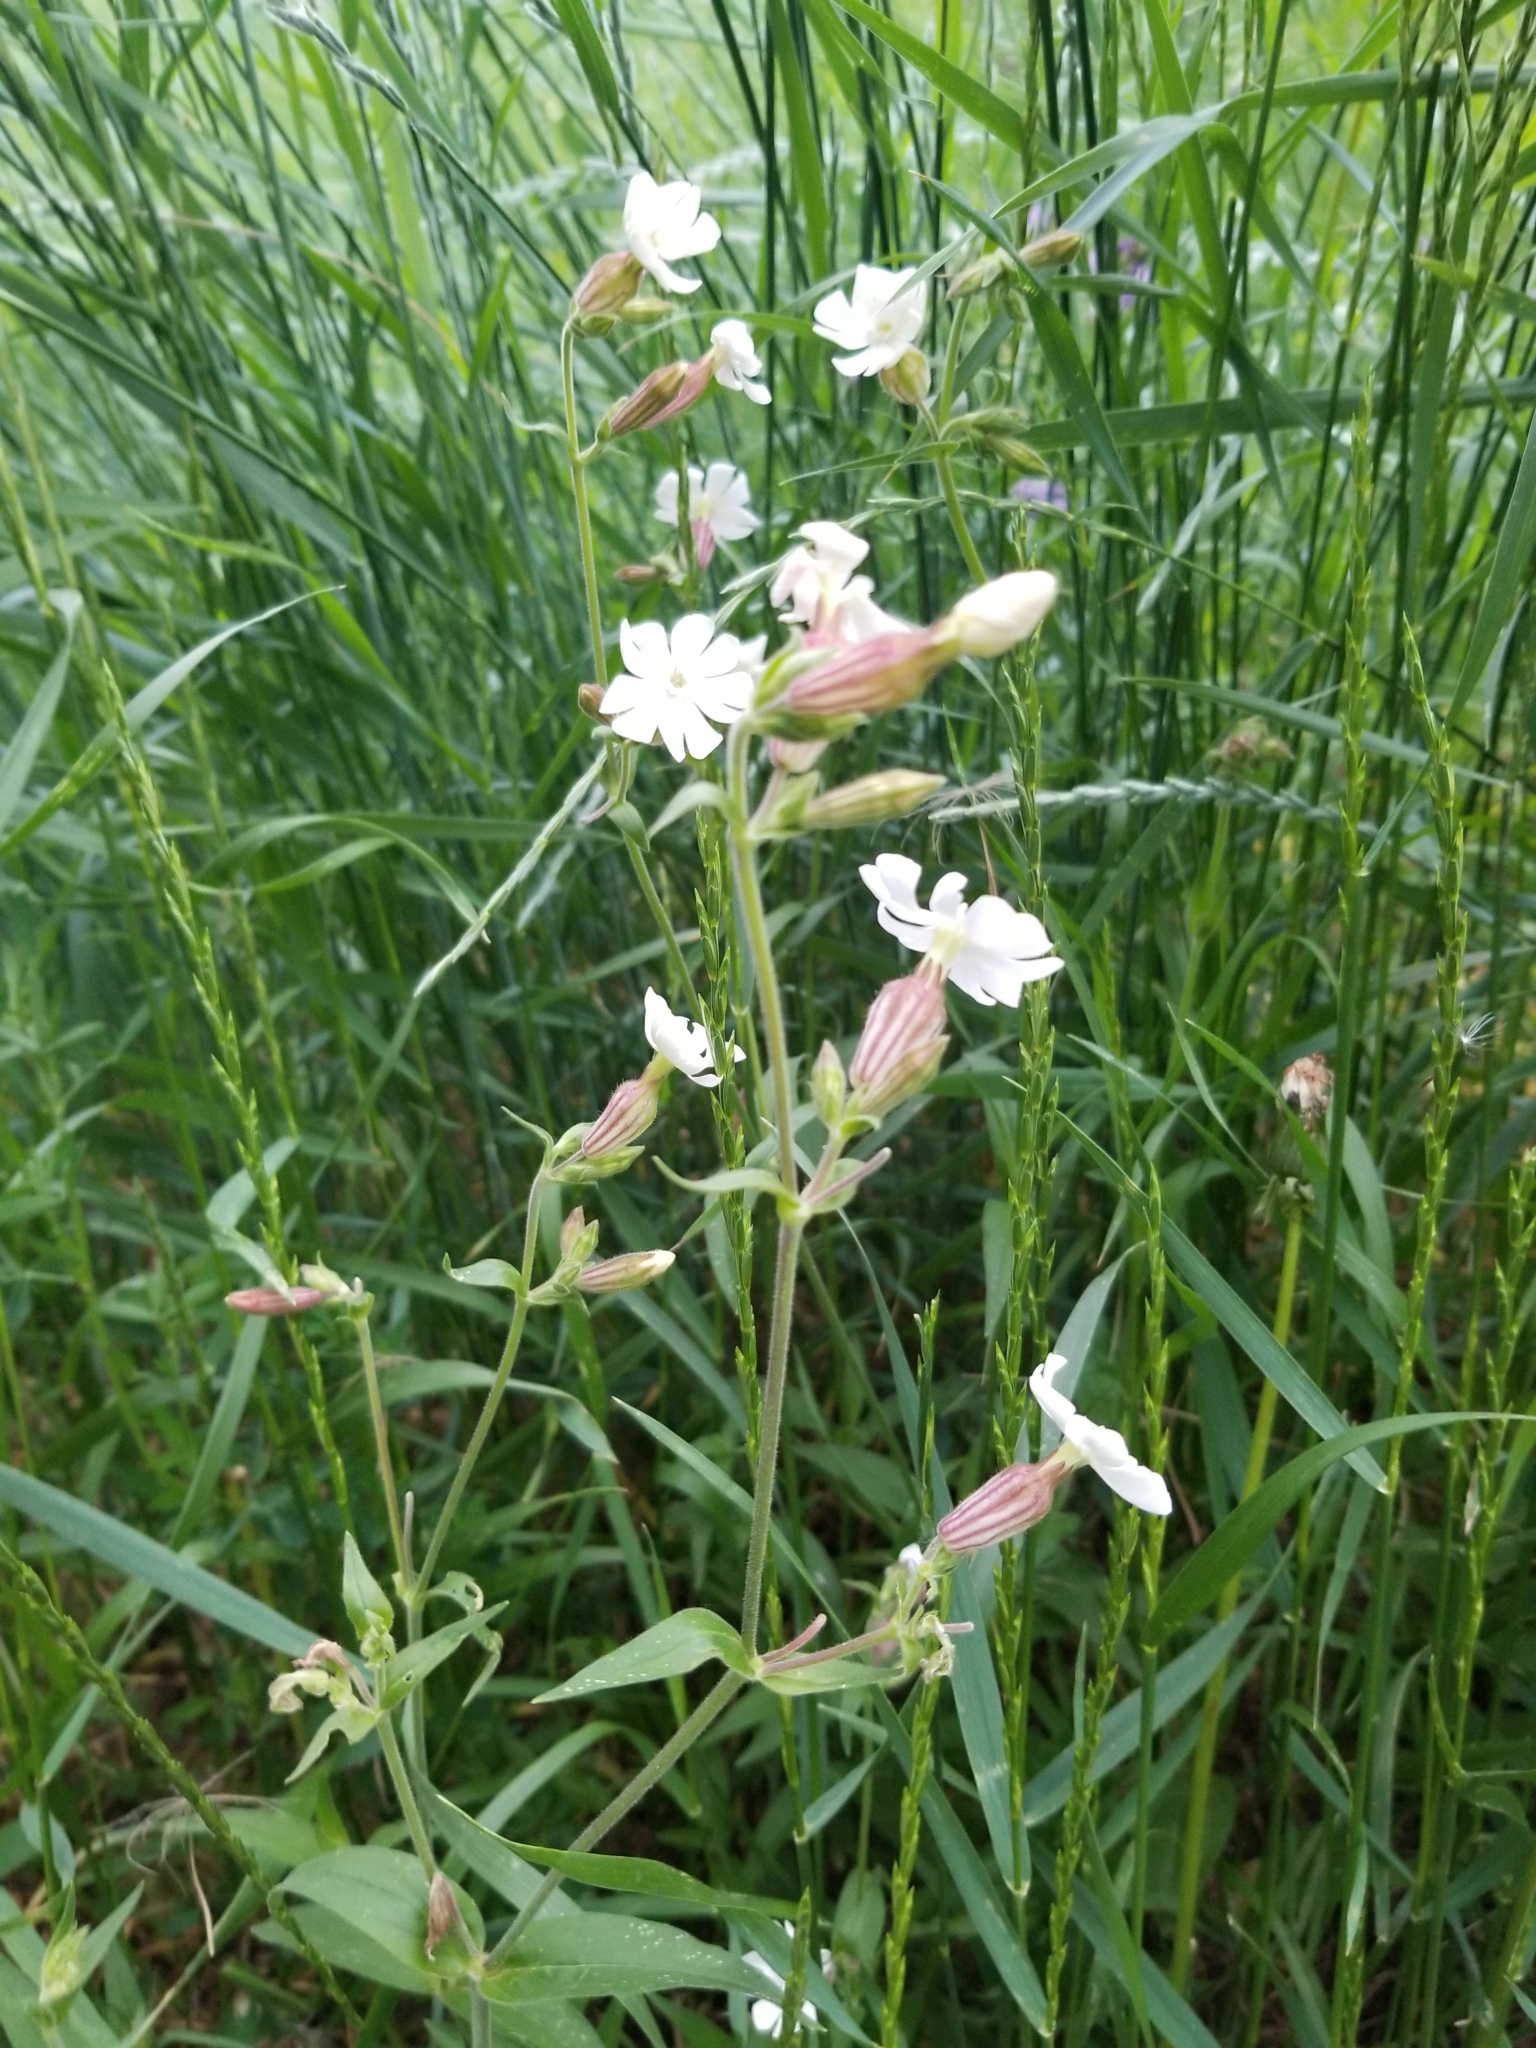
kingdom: Plantae
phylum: Tracheophyta
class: Magnoliopsida
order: Caryophyllales
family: Caryophyllaceae
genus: Silene
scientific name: Silene latifolia
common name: White campion
